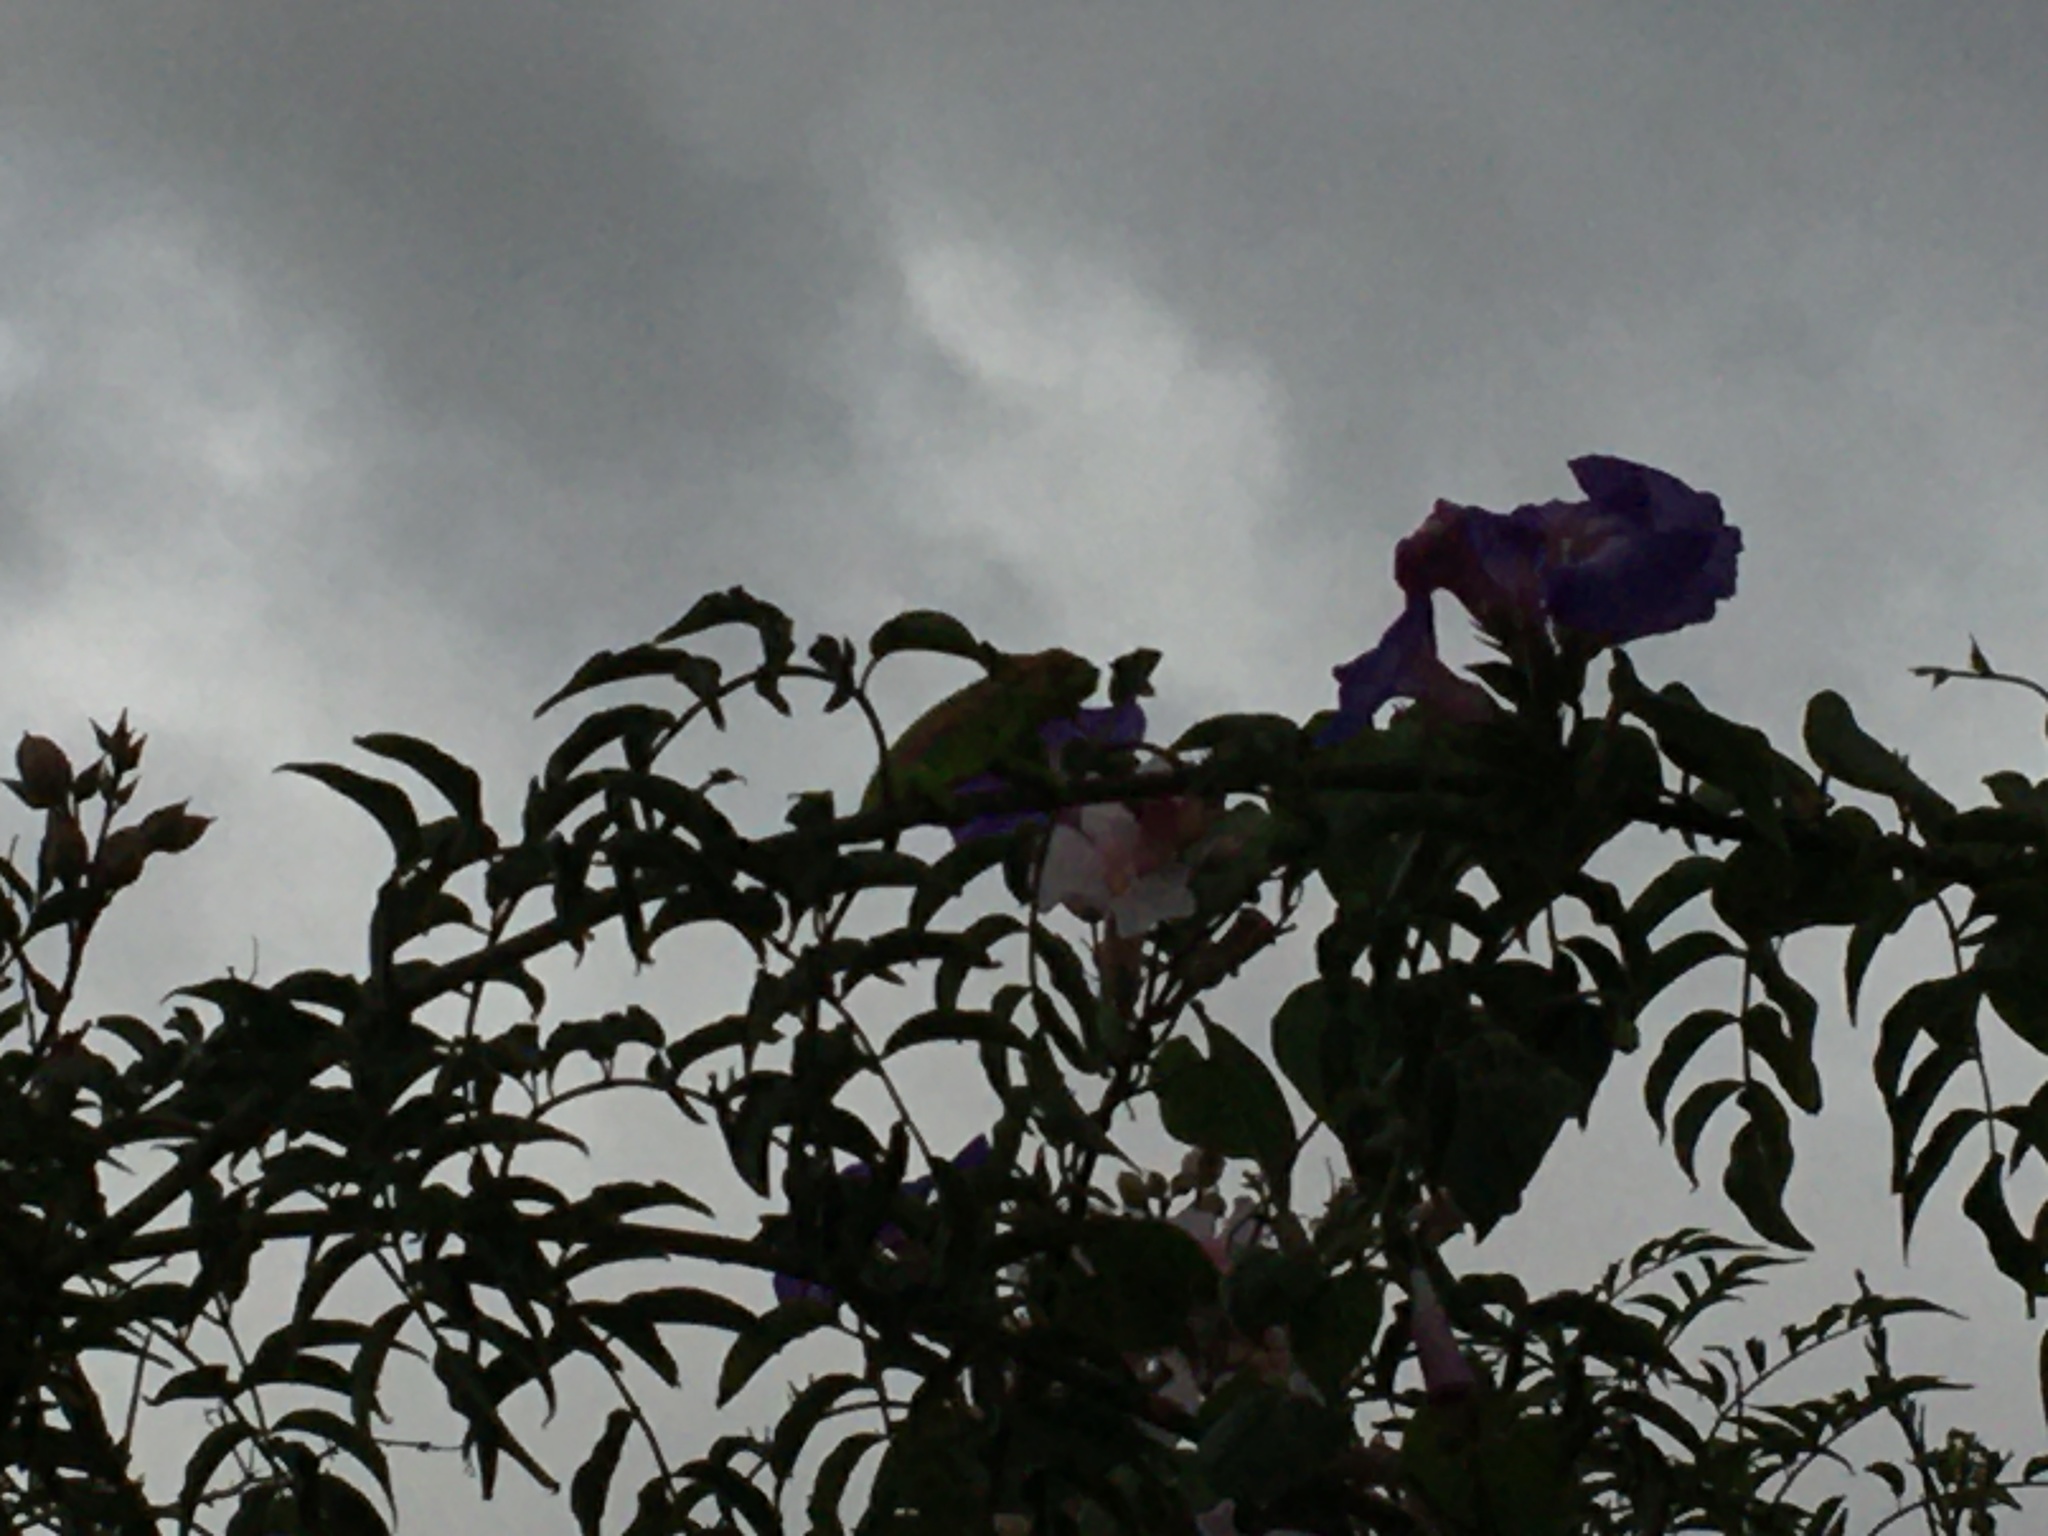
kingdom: Animalia
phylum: Chordata
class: Squamata
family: Chamaeleonidae
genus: Bradypodion
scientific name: Bradypodion pumilum
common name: Cape dwarf chameleon
